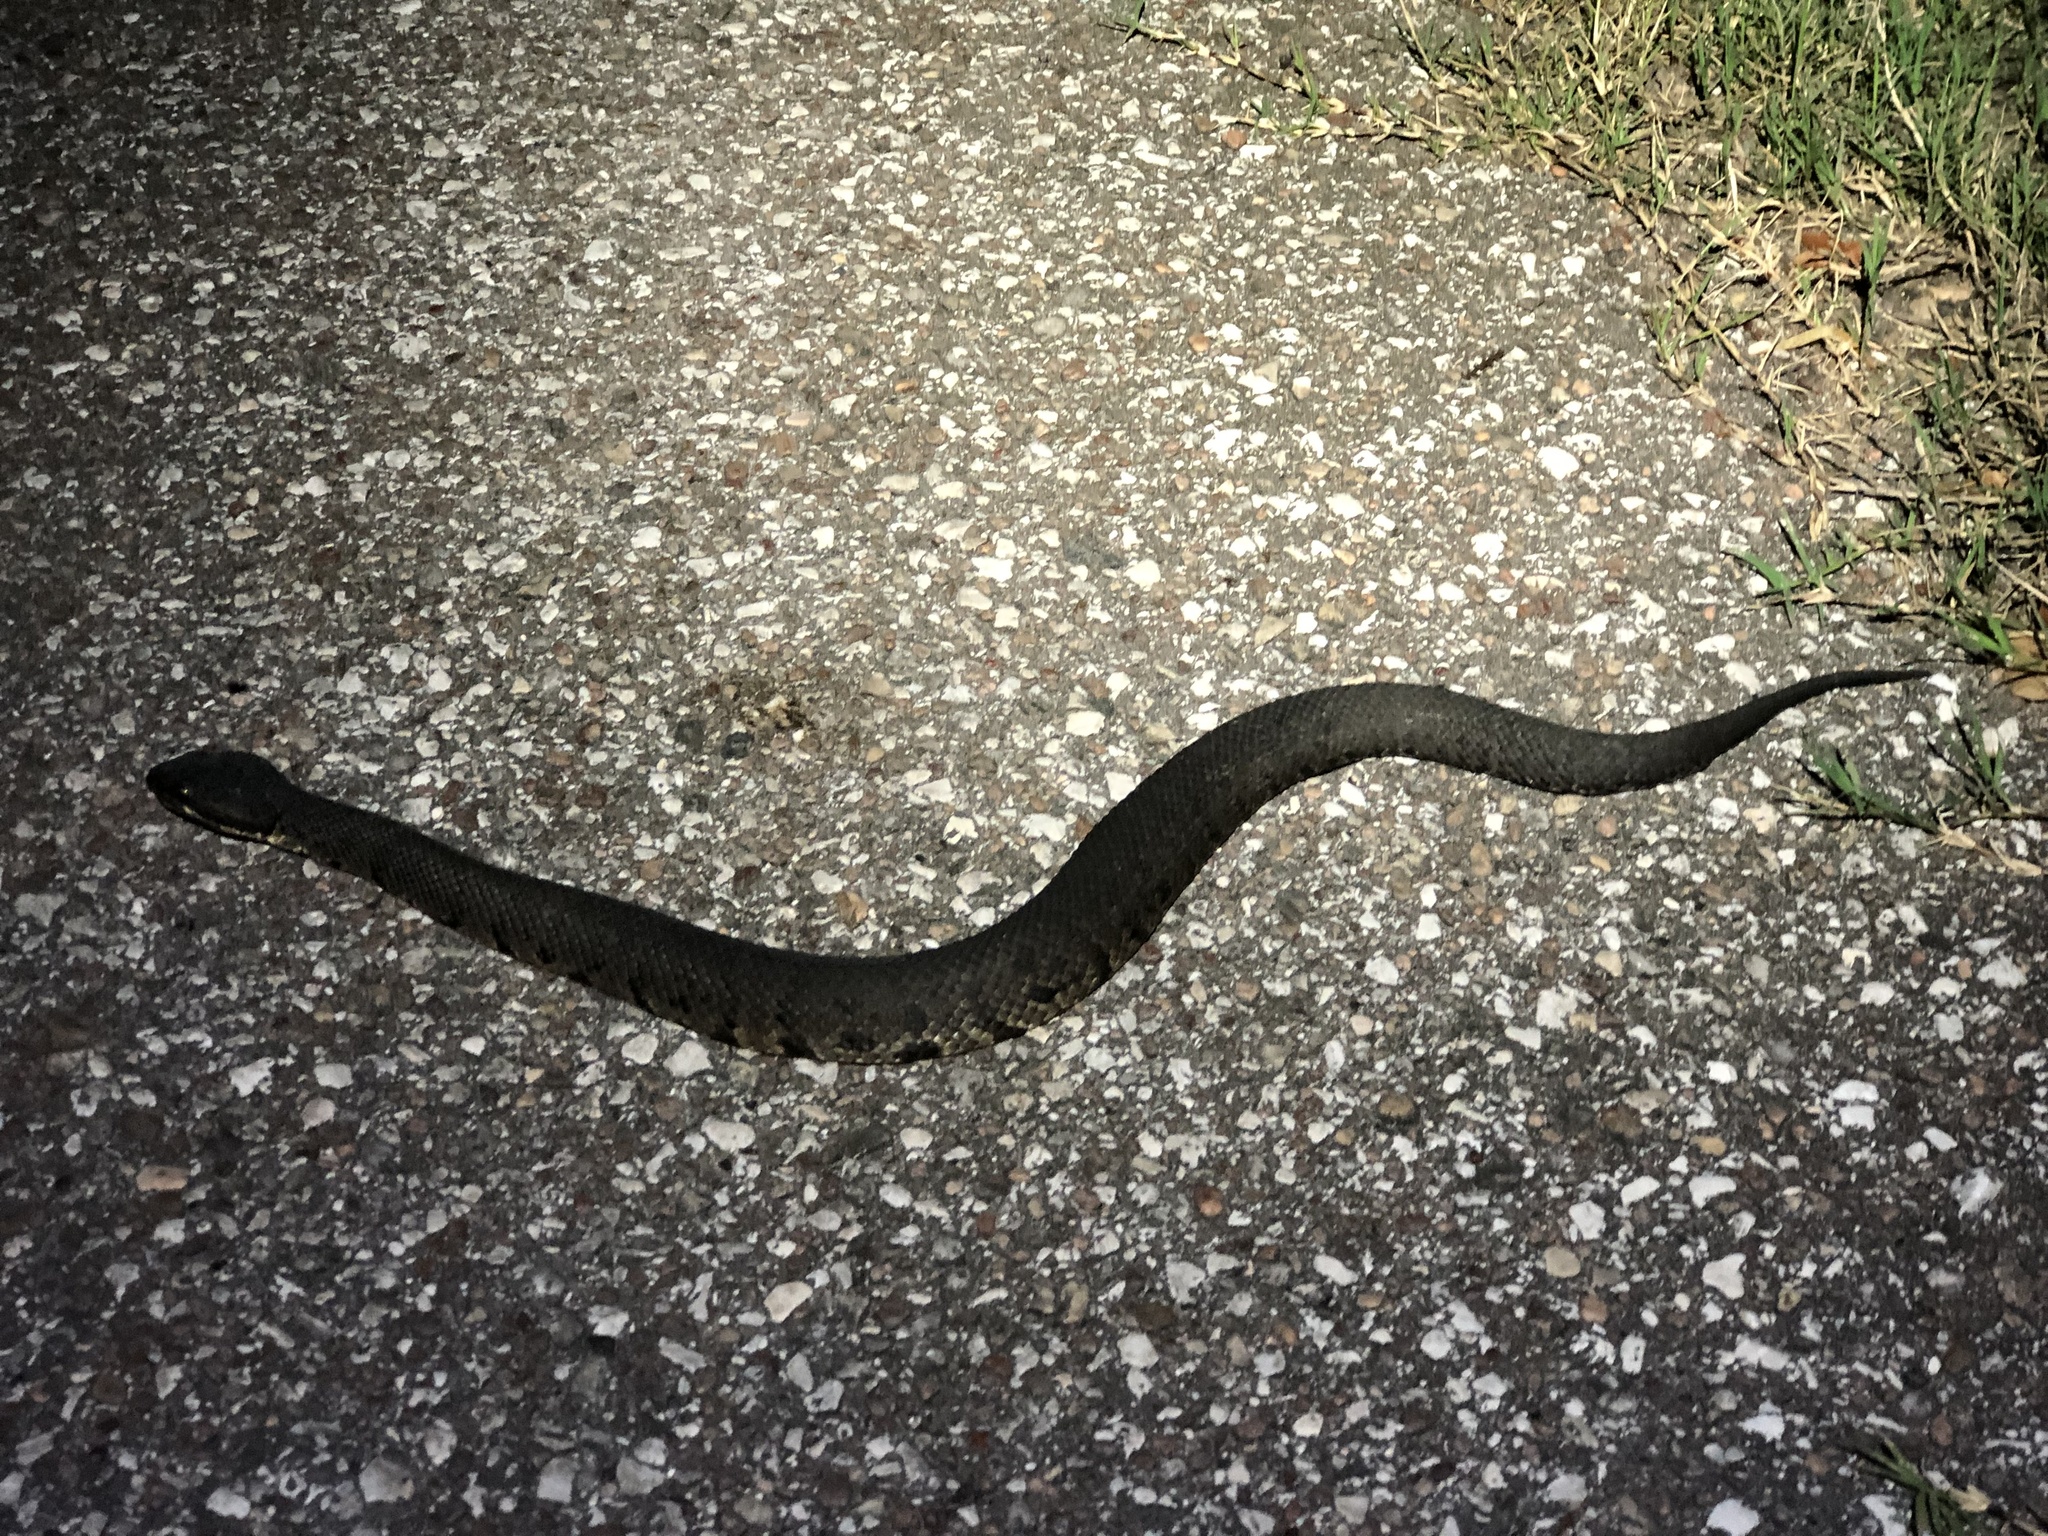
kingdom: Animalia
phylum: Chordata
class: Squamata
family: Viperidae
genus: Agkistrodon
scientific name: Agkistrodon piscivorus
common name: Cottonmouth
